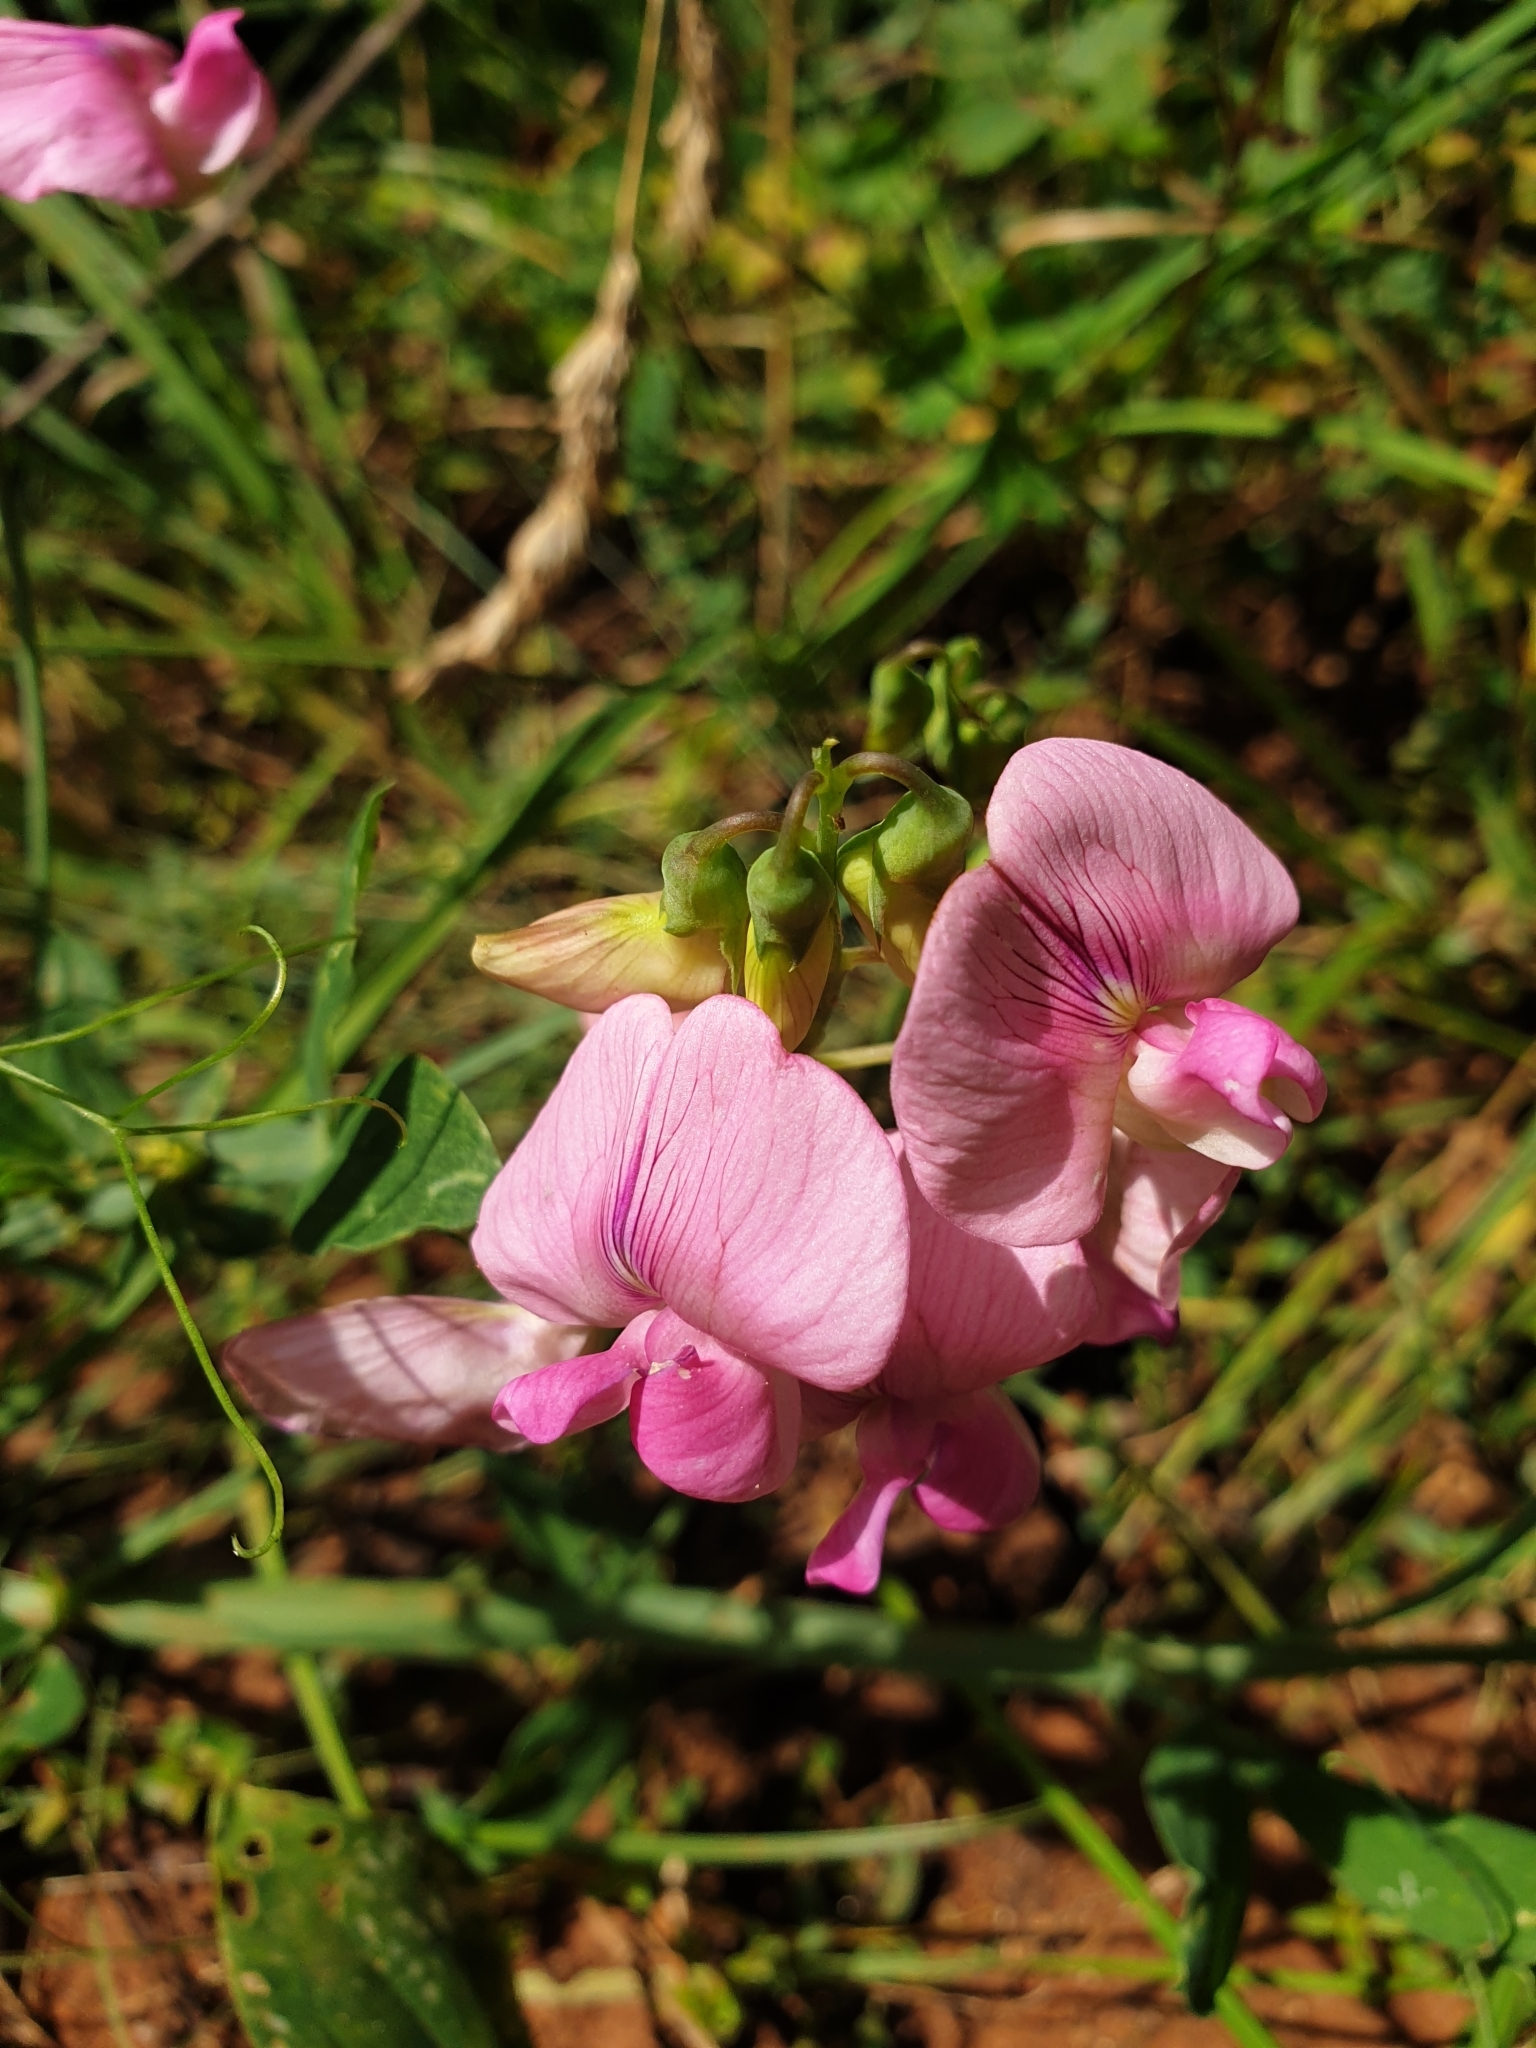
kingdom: Plantae
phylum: Tracheophyta
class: Magnoliopsida
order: Fabales
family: Fabaceae
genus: Lathyrus
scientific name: Lathyrus latifolius
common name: Perennial pea
